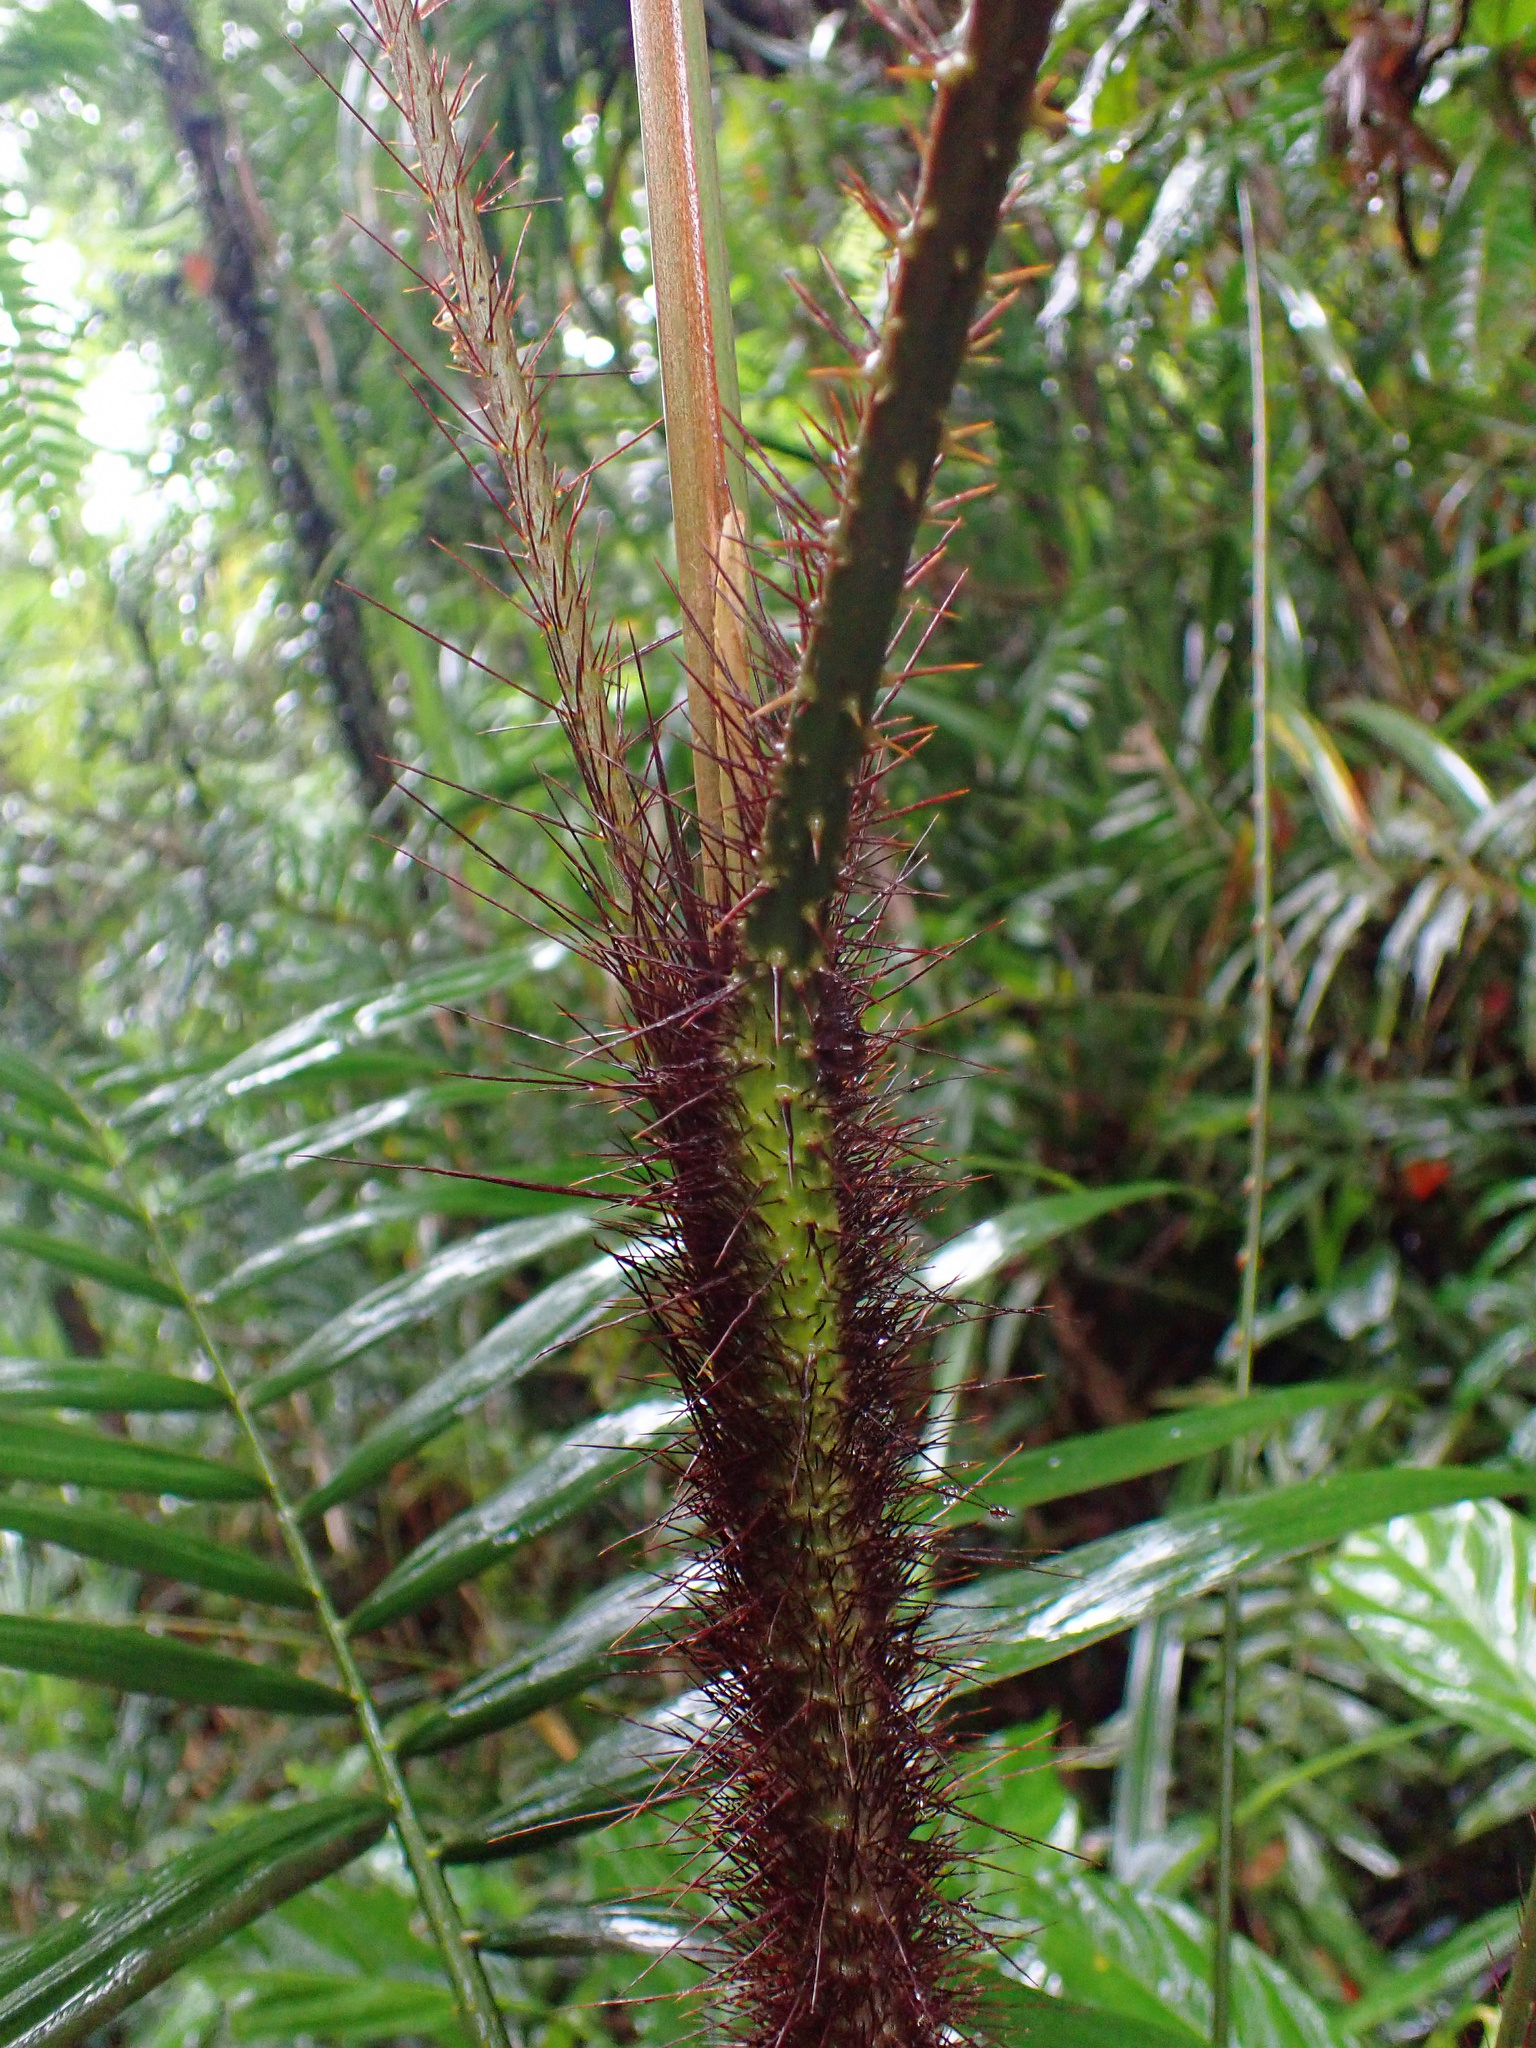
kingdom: Plantae
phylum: Tracheophyta
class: Liliopsida
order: Arecales
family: Arecaceae
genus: Calamus
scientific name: Calamus australis
